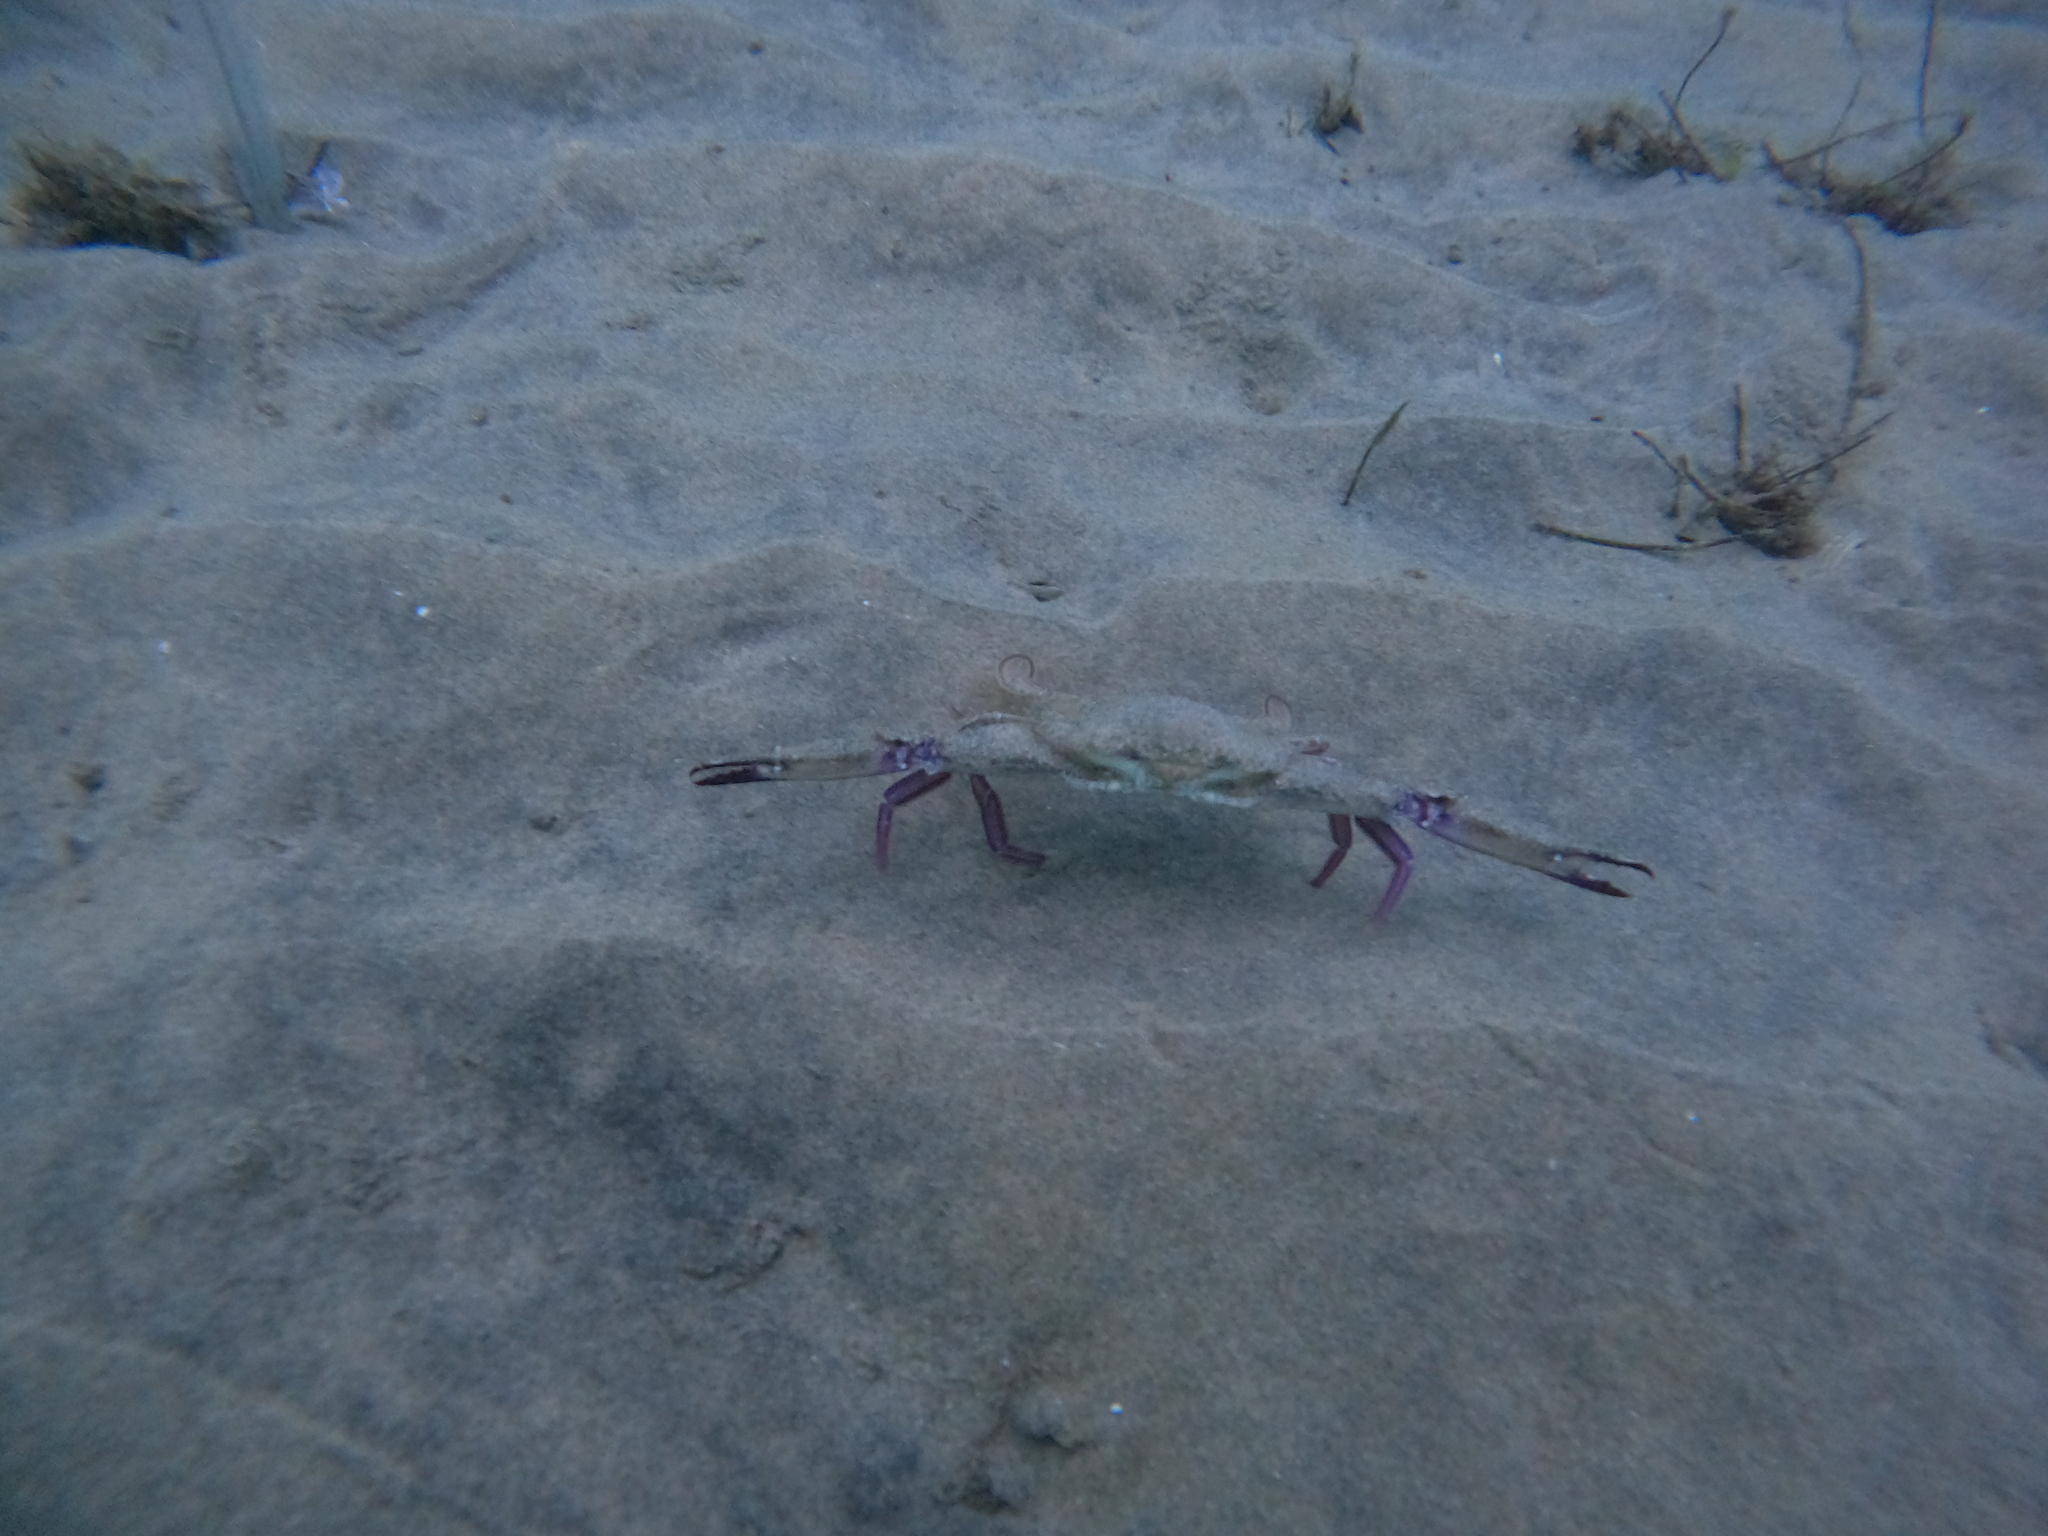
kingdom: Animalia
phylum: Arthropoda
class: Malacostraca
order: Decapoda
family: Portunidae
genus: Achelous
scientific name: Achelous xantusii
